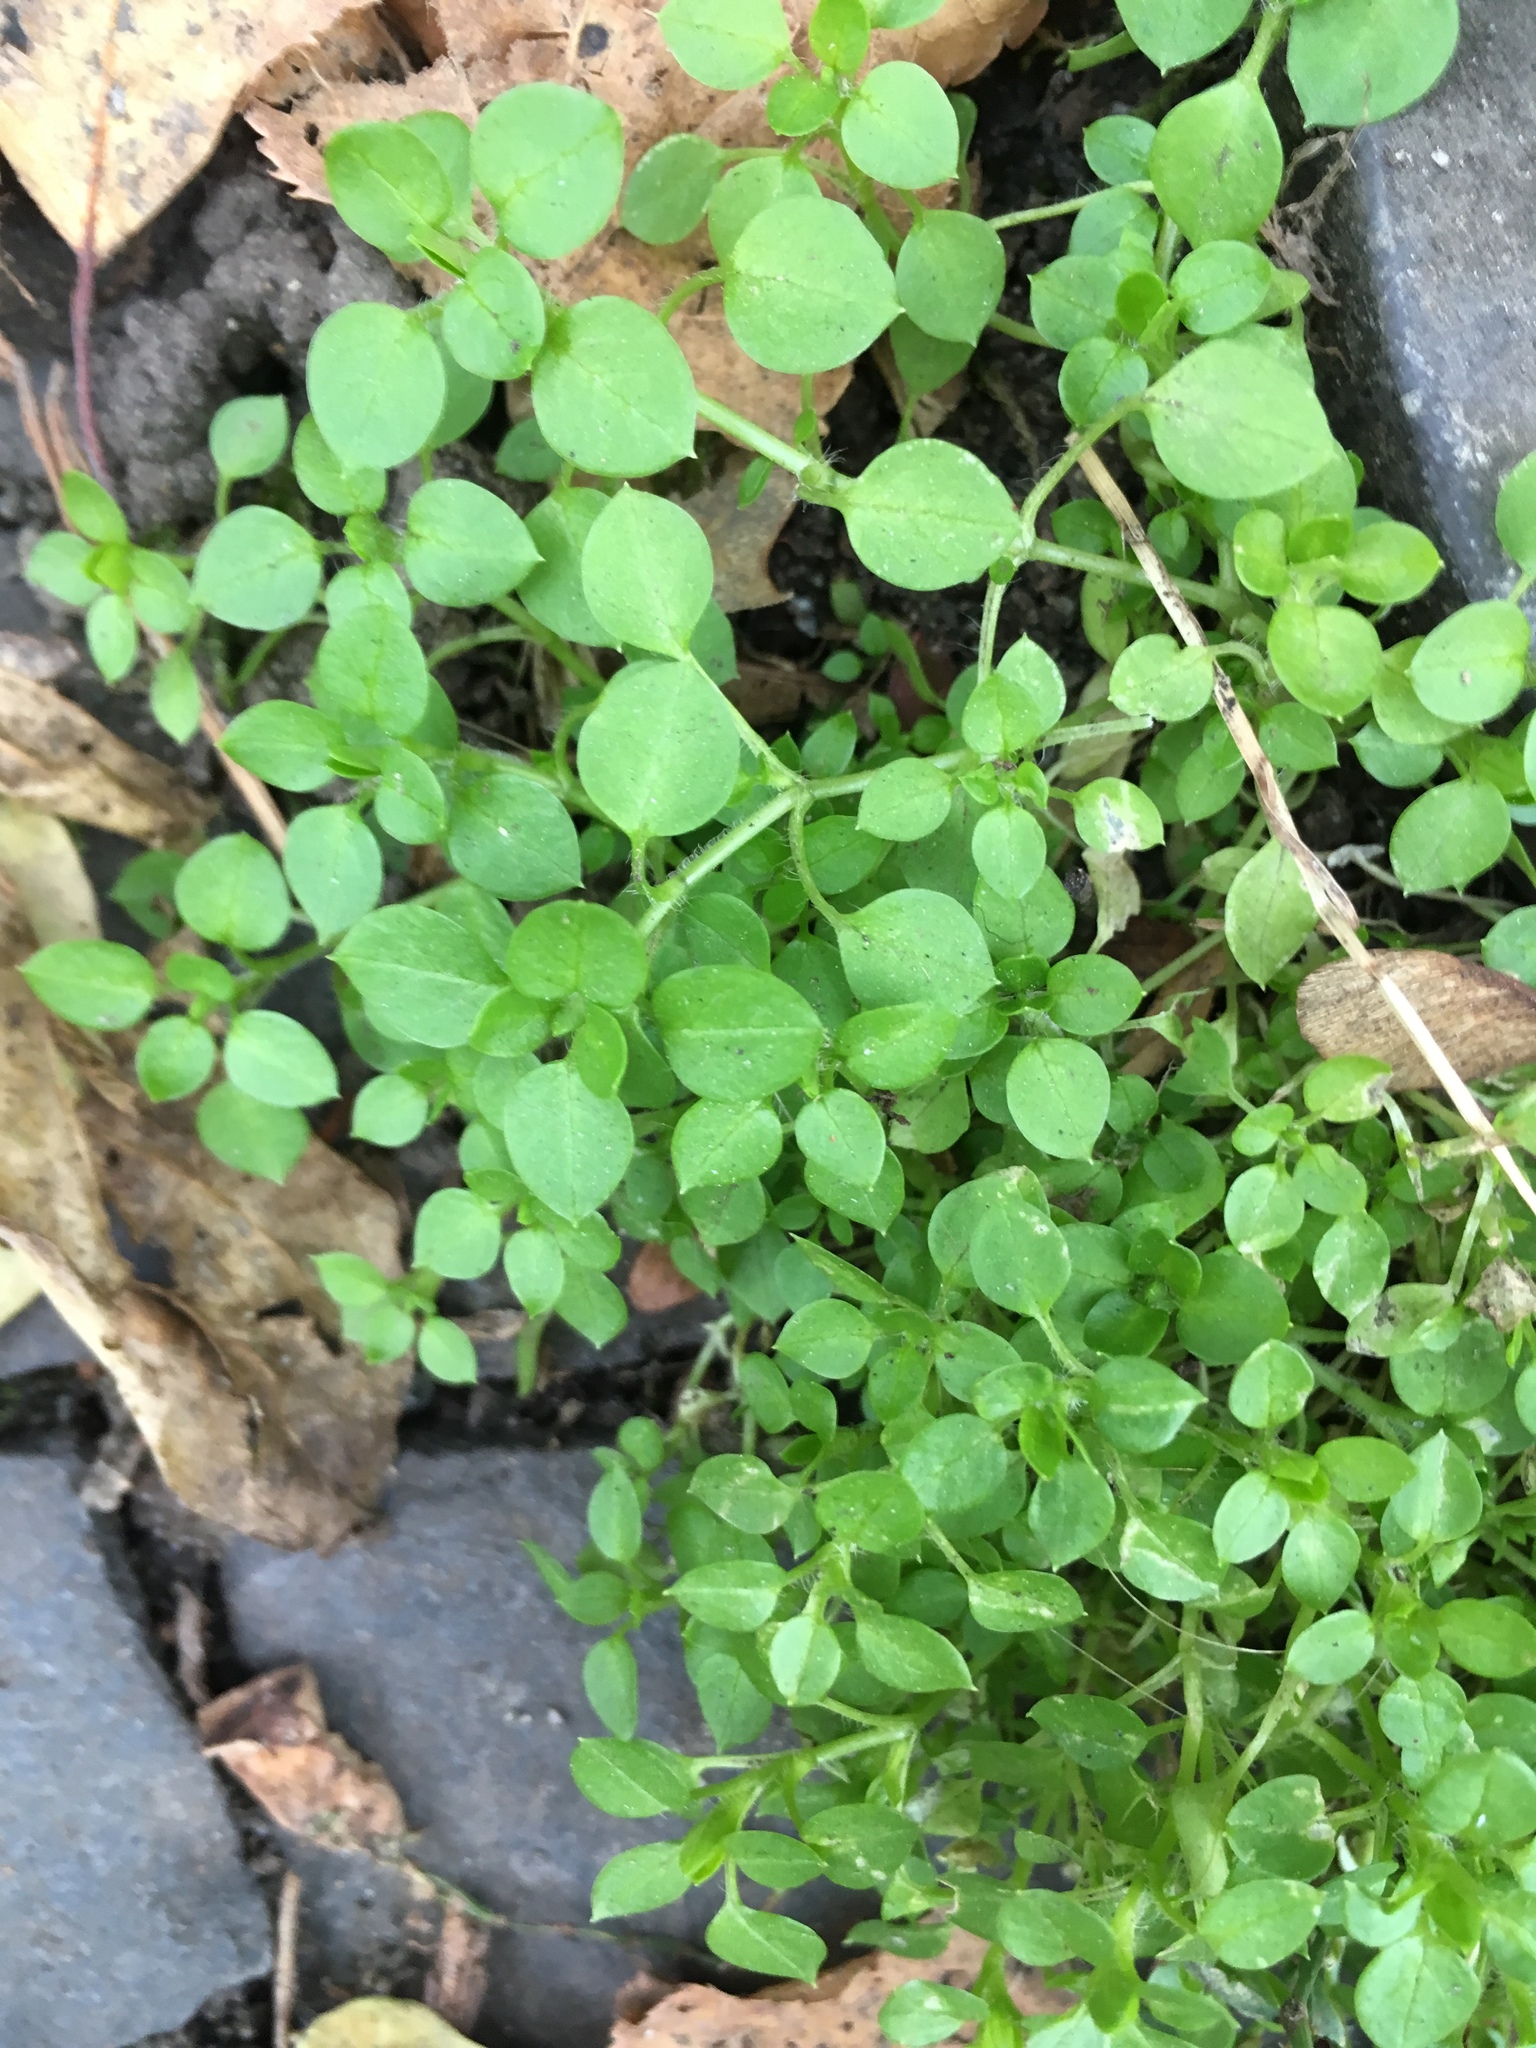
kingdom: Plantae
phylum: Tracheophyta
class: Magnoliopsida
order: Caryophyllales
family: Caryophyllaceae
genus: Stellaria
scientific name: Stellaria media
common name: Common chickweed
